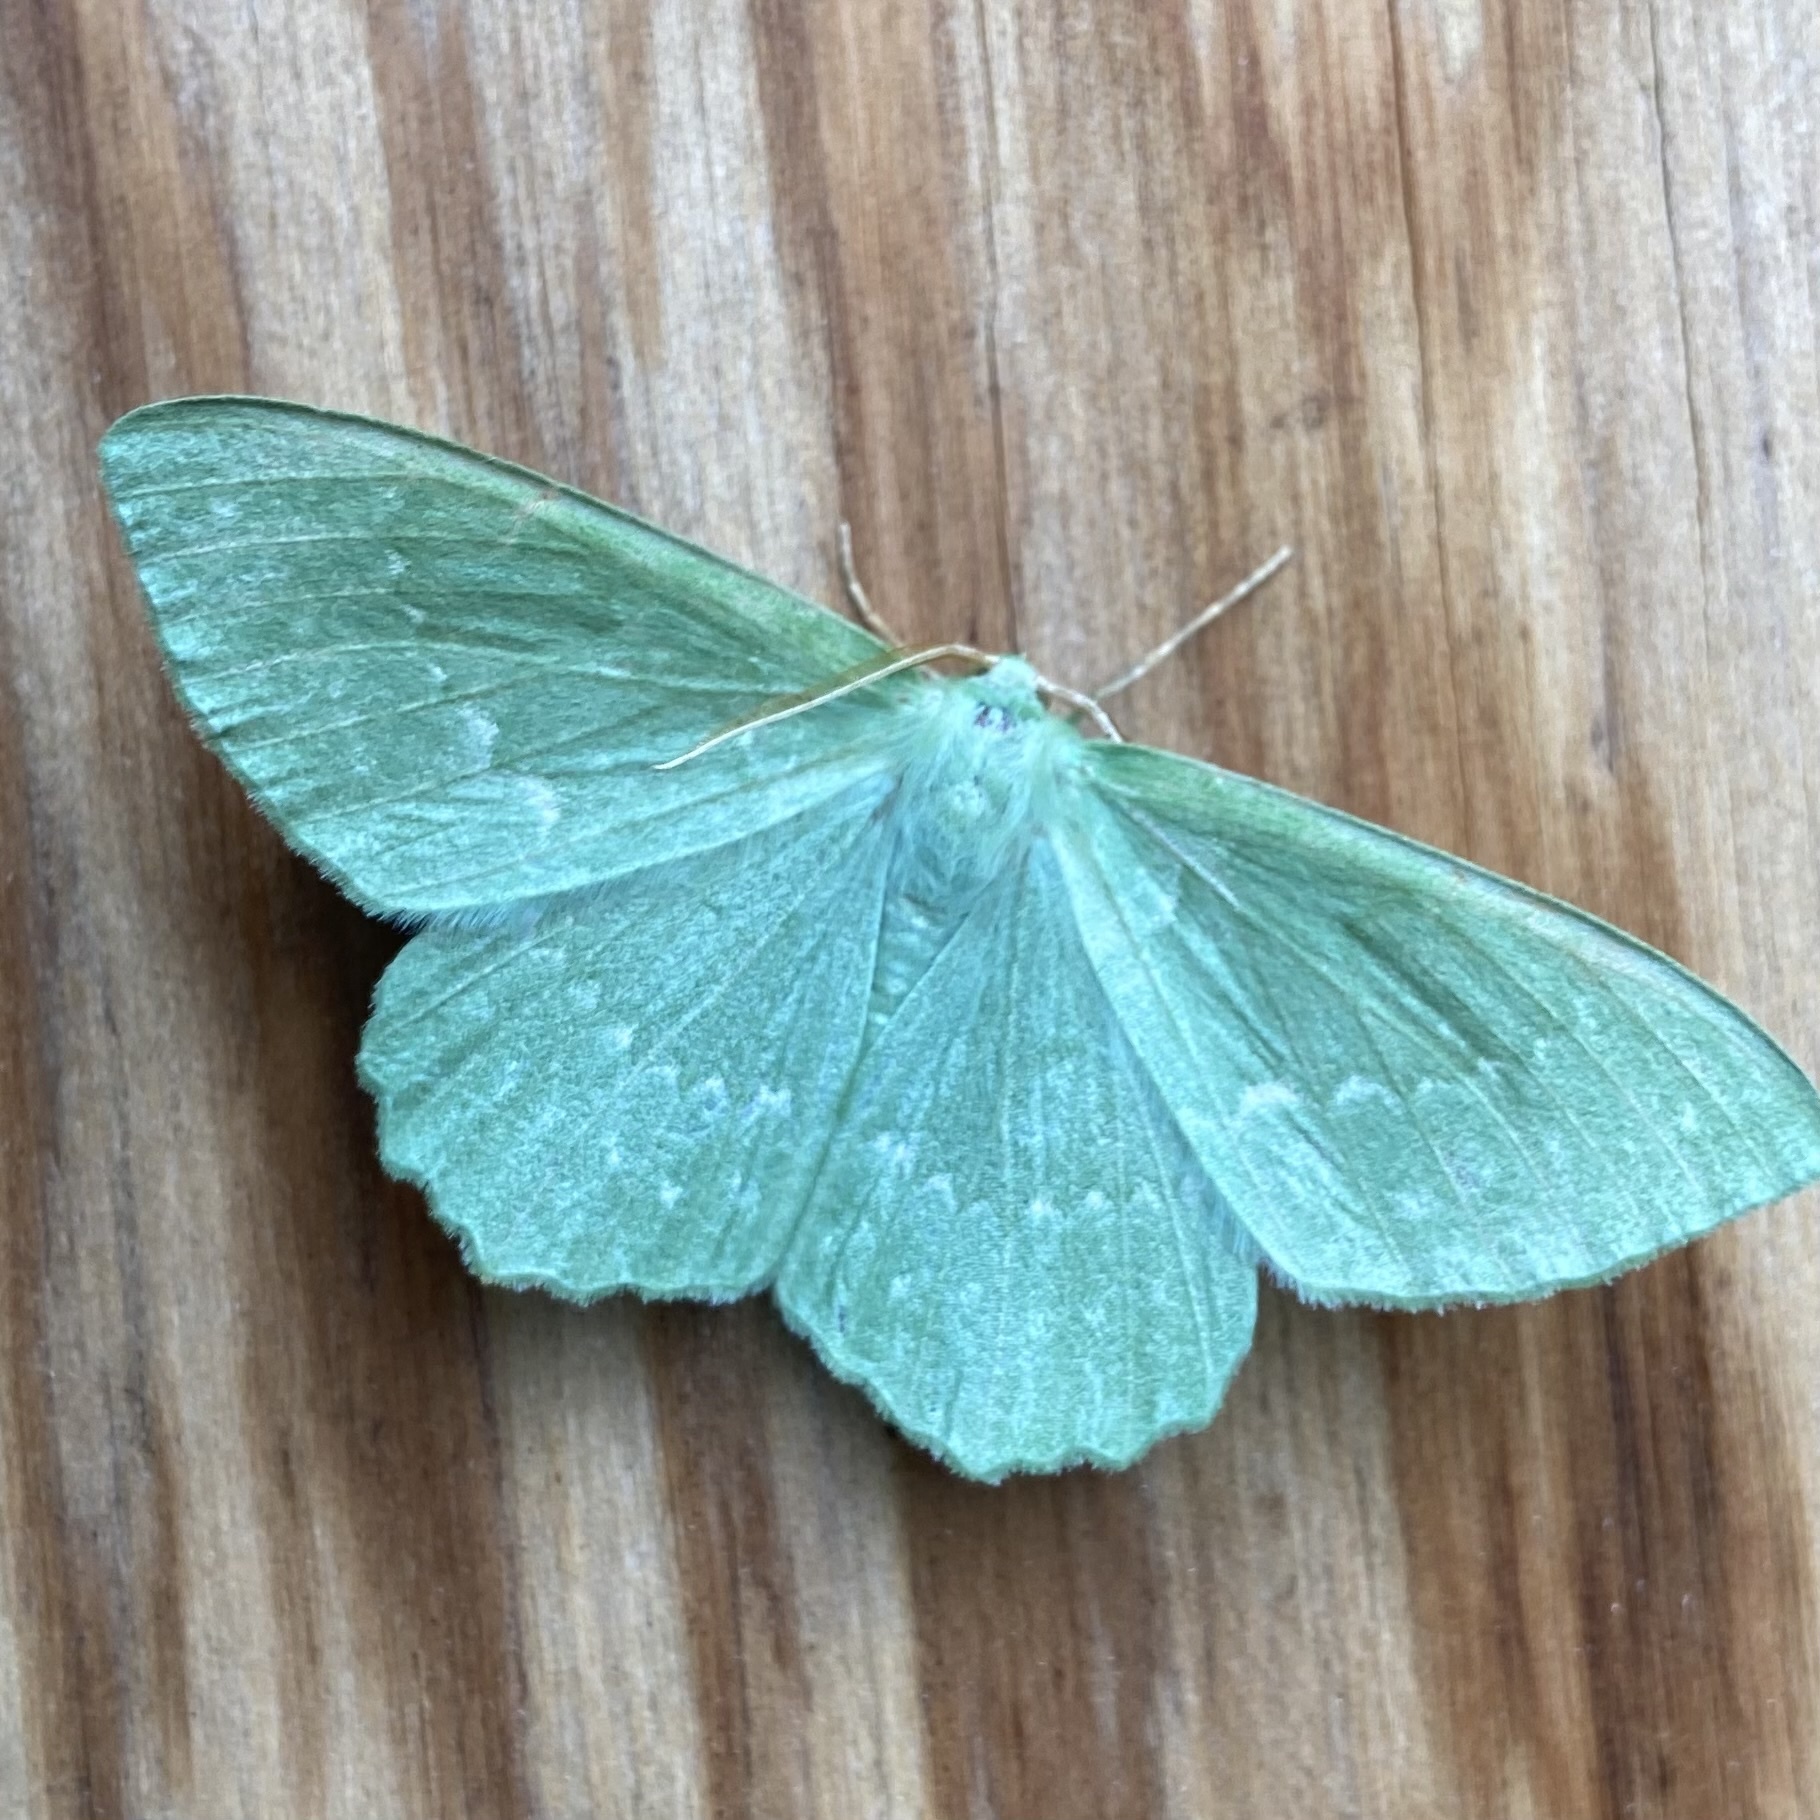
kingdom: Animalia
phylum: Arthropoda
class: Insecta
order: Lepidoptera
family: Geometridae
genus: Geometra
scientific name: Geometra papilionaria
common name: Large emerald
